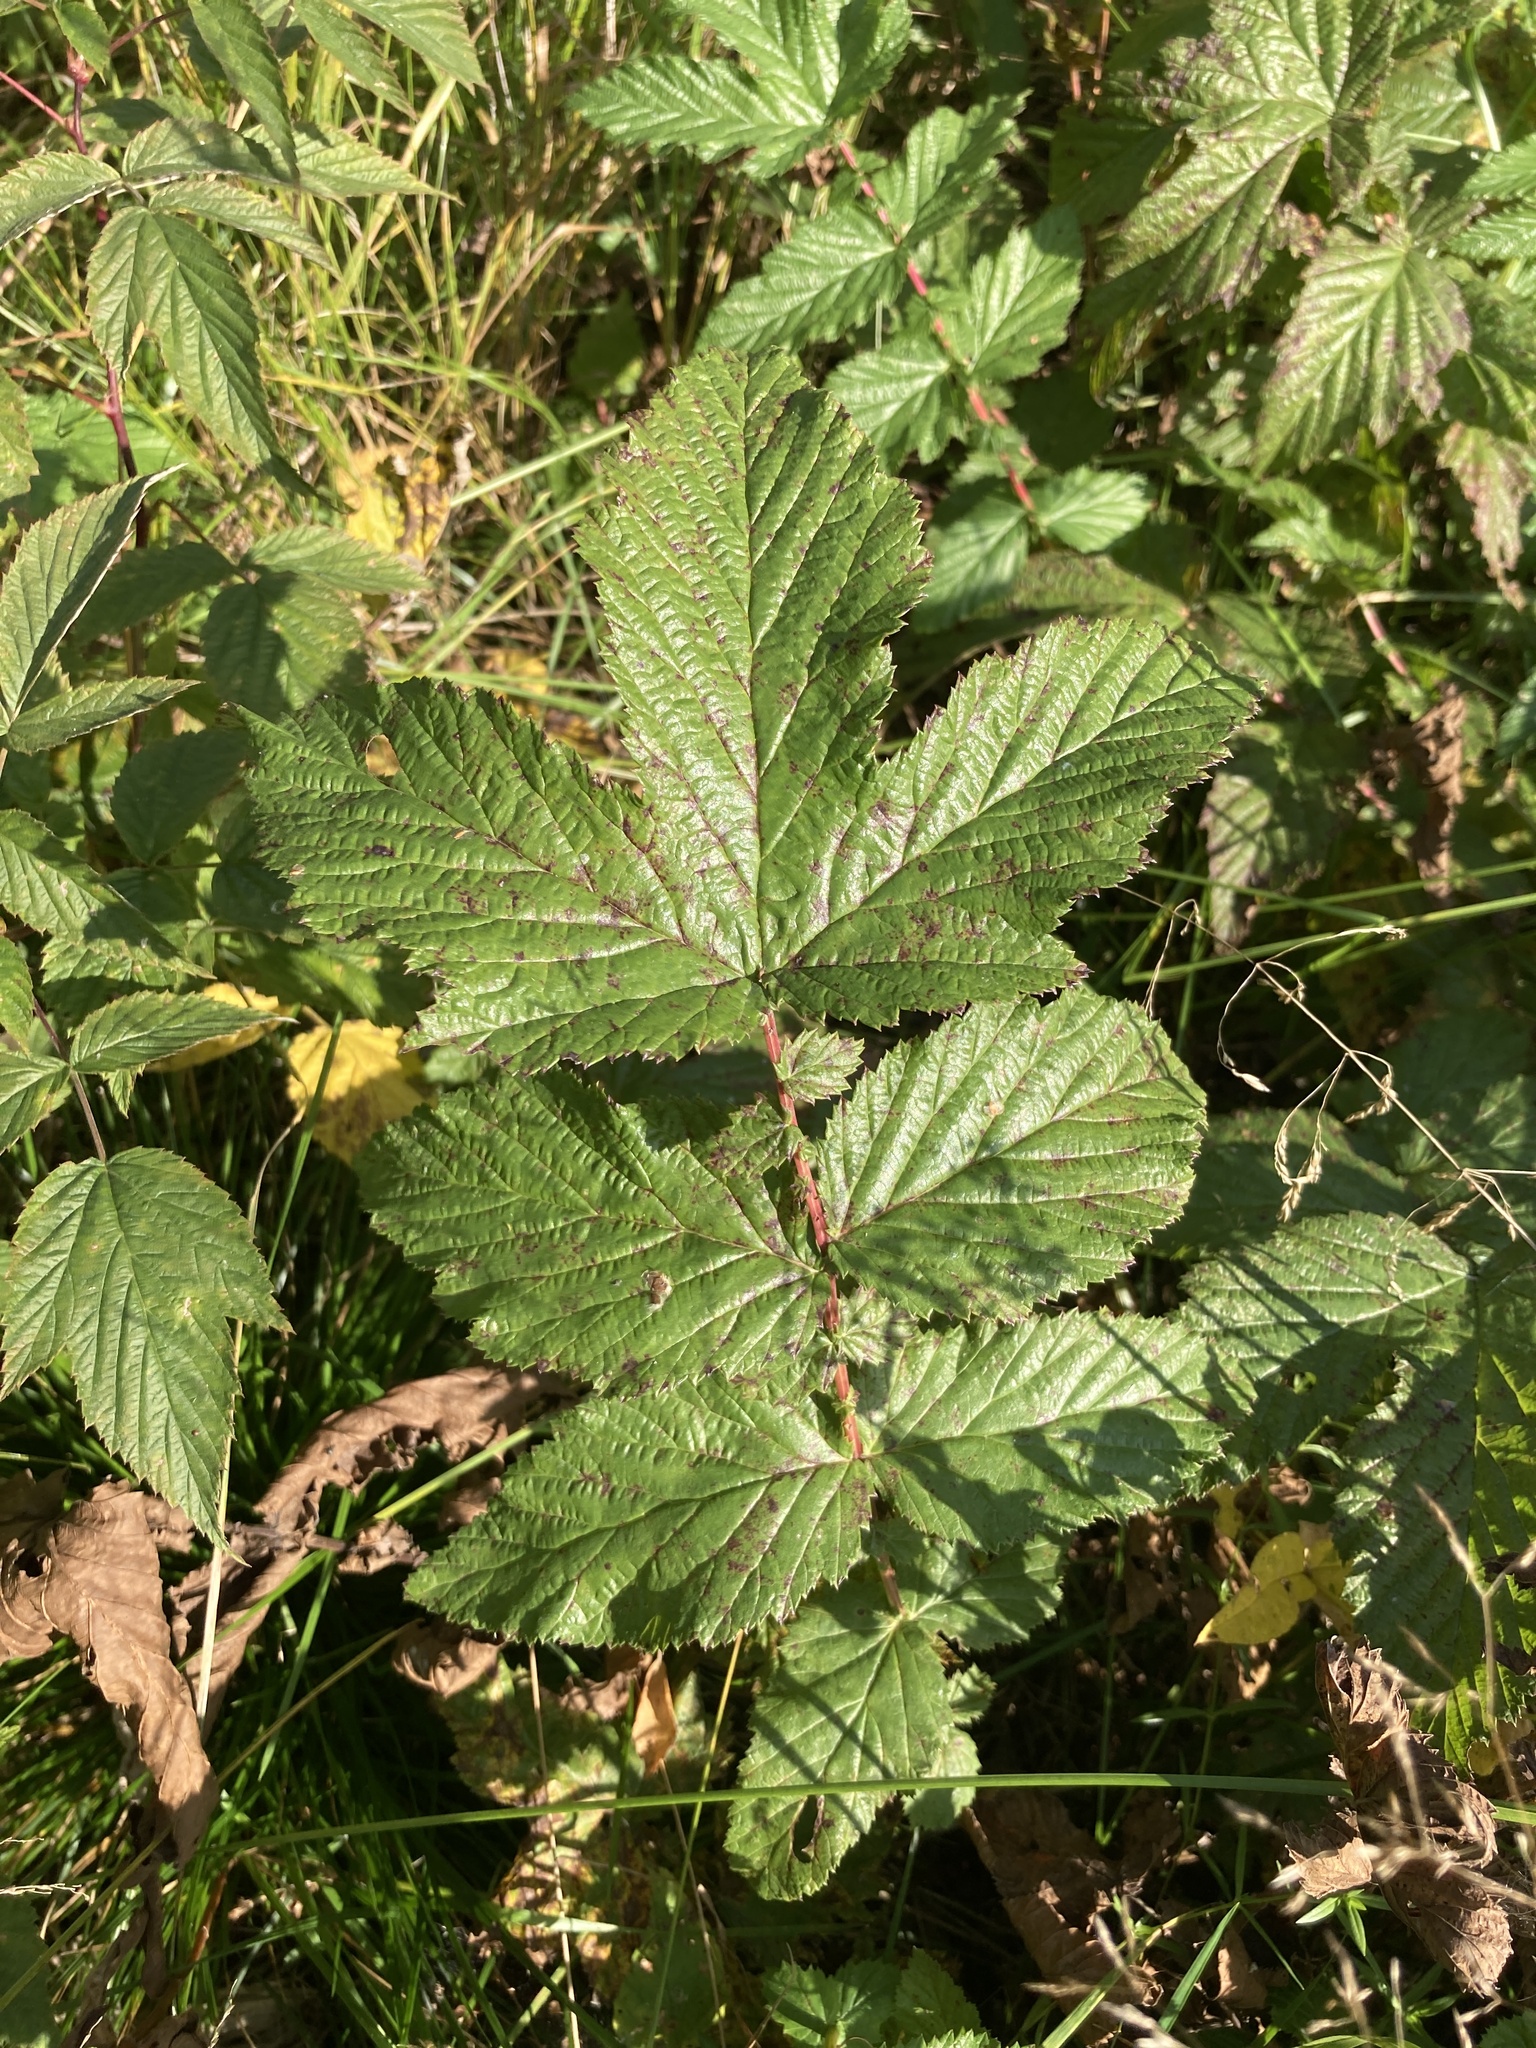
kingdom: Plantae
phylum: Tracheophyta
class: Magnoliopsida
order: Rosales
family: Rosaceae
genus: Filipendula
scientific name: Filipendula ulmaria
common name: Meadowsweet
